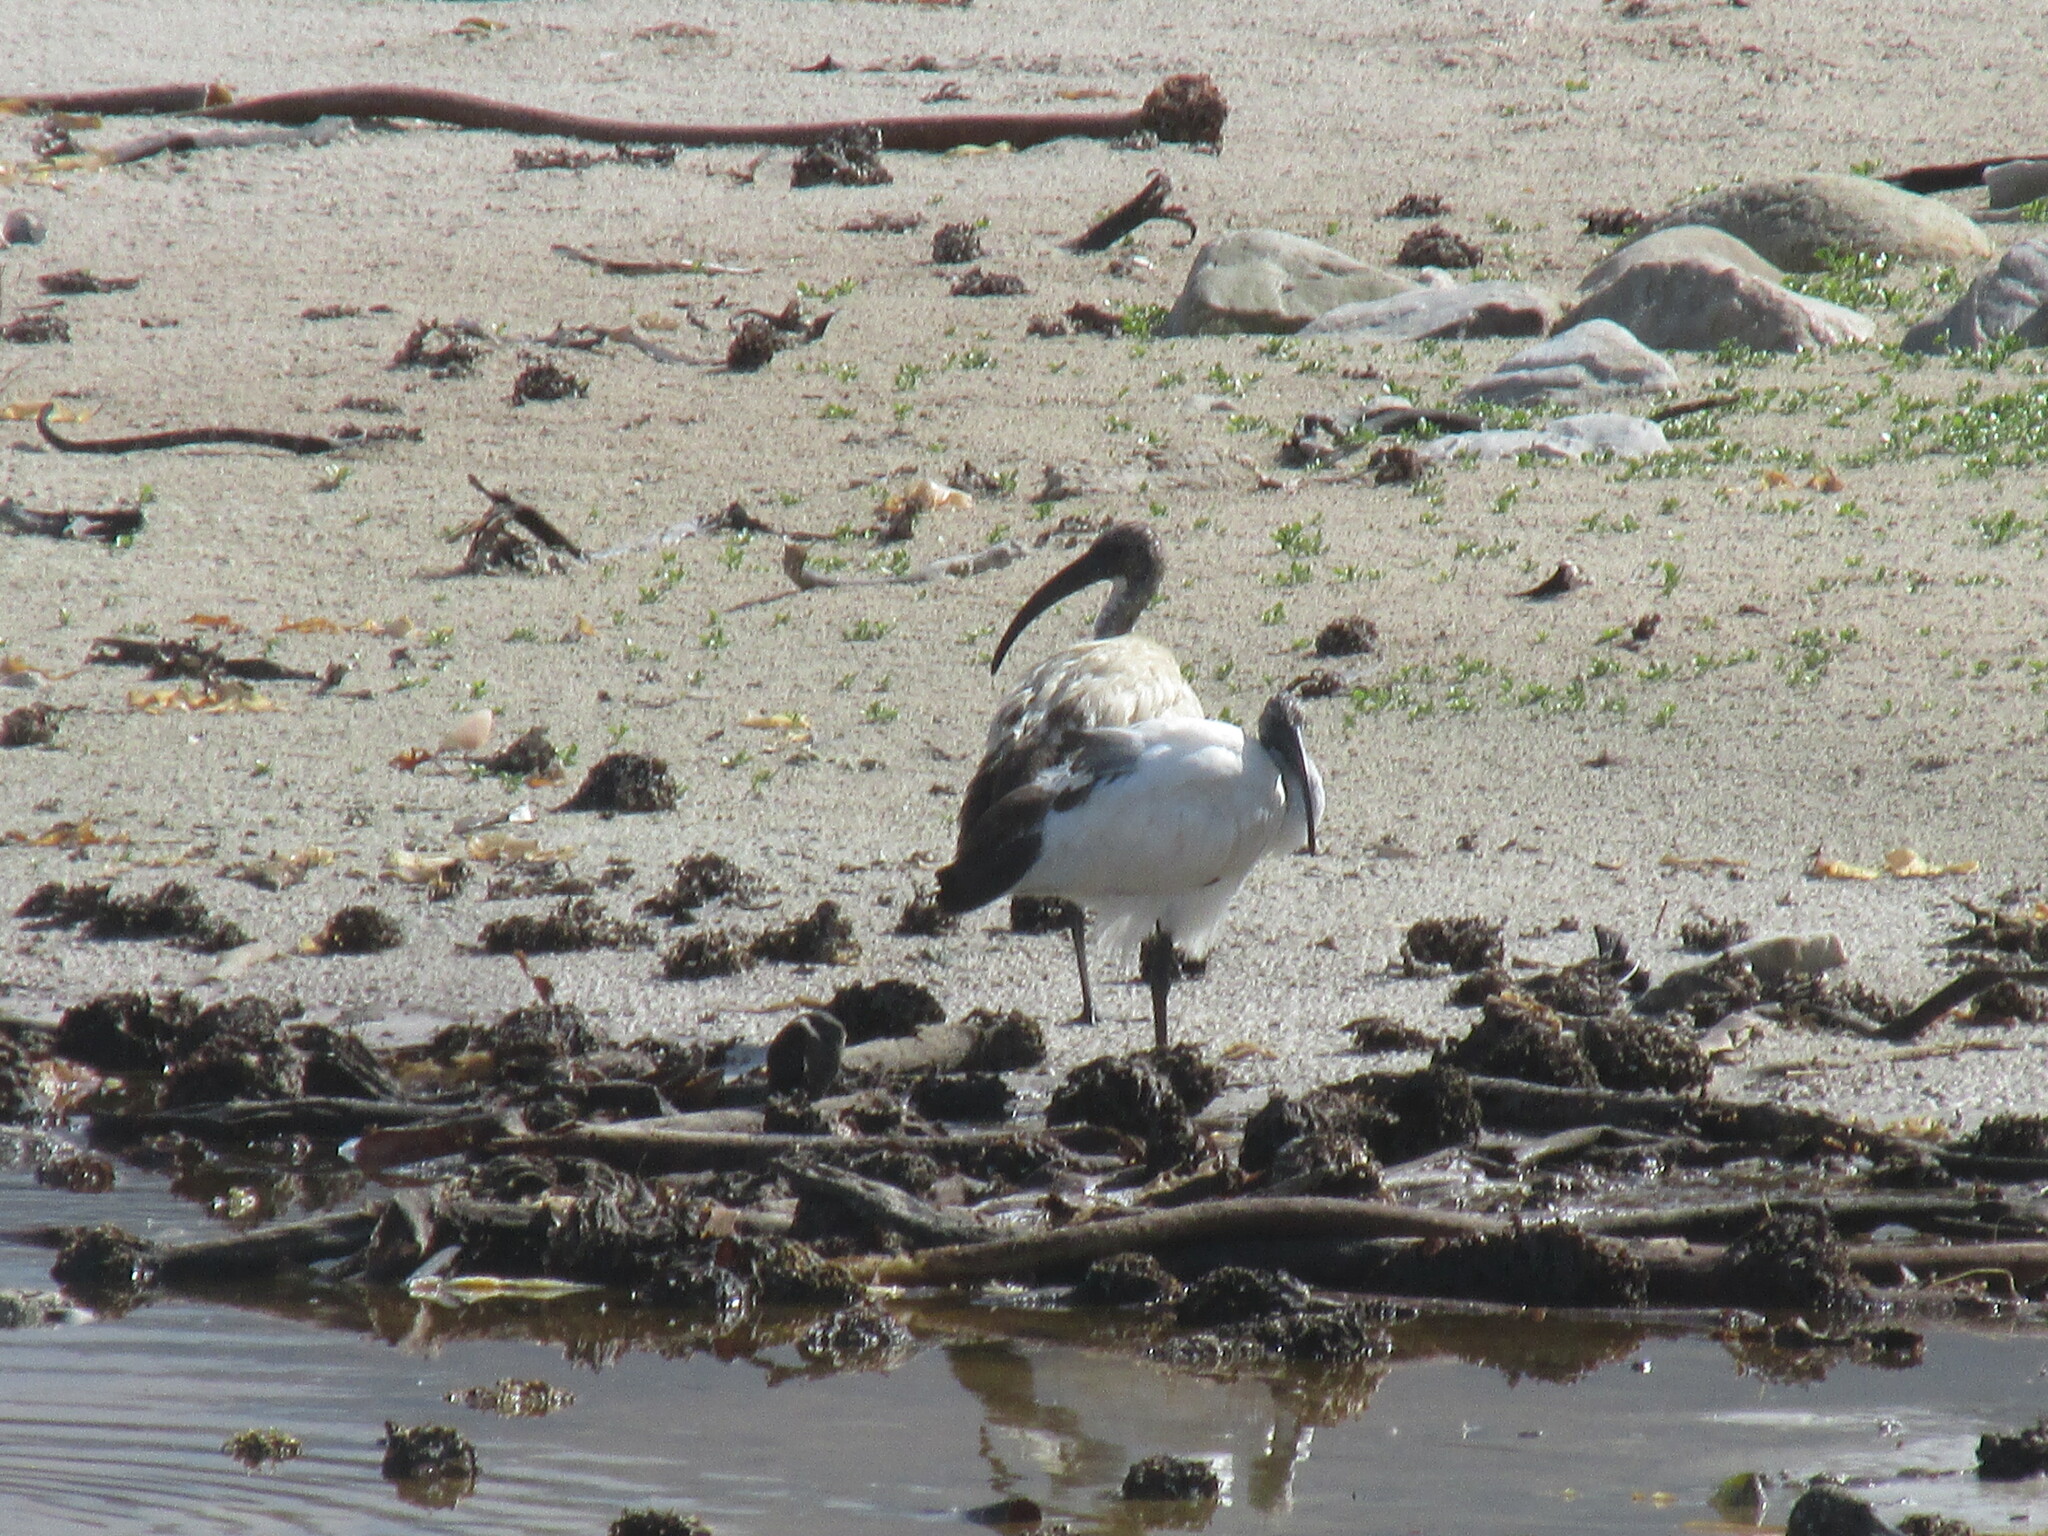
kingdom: Animalia
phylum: Chordata
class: Aves
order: Pelecaniformes
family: Threskiornithidae
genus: Threskiornis
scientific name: Threskiornis aethiopicus
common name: Sacred ibis
